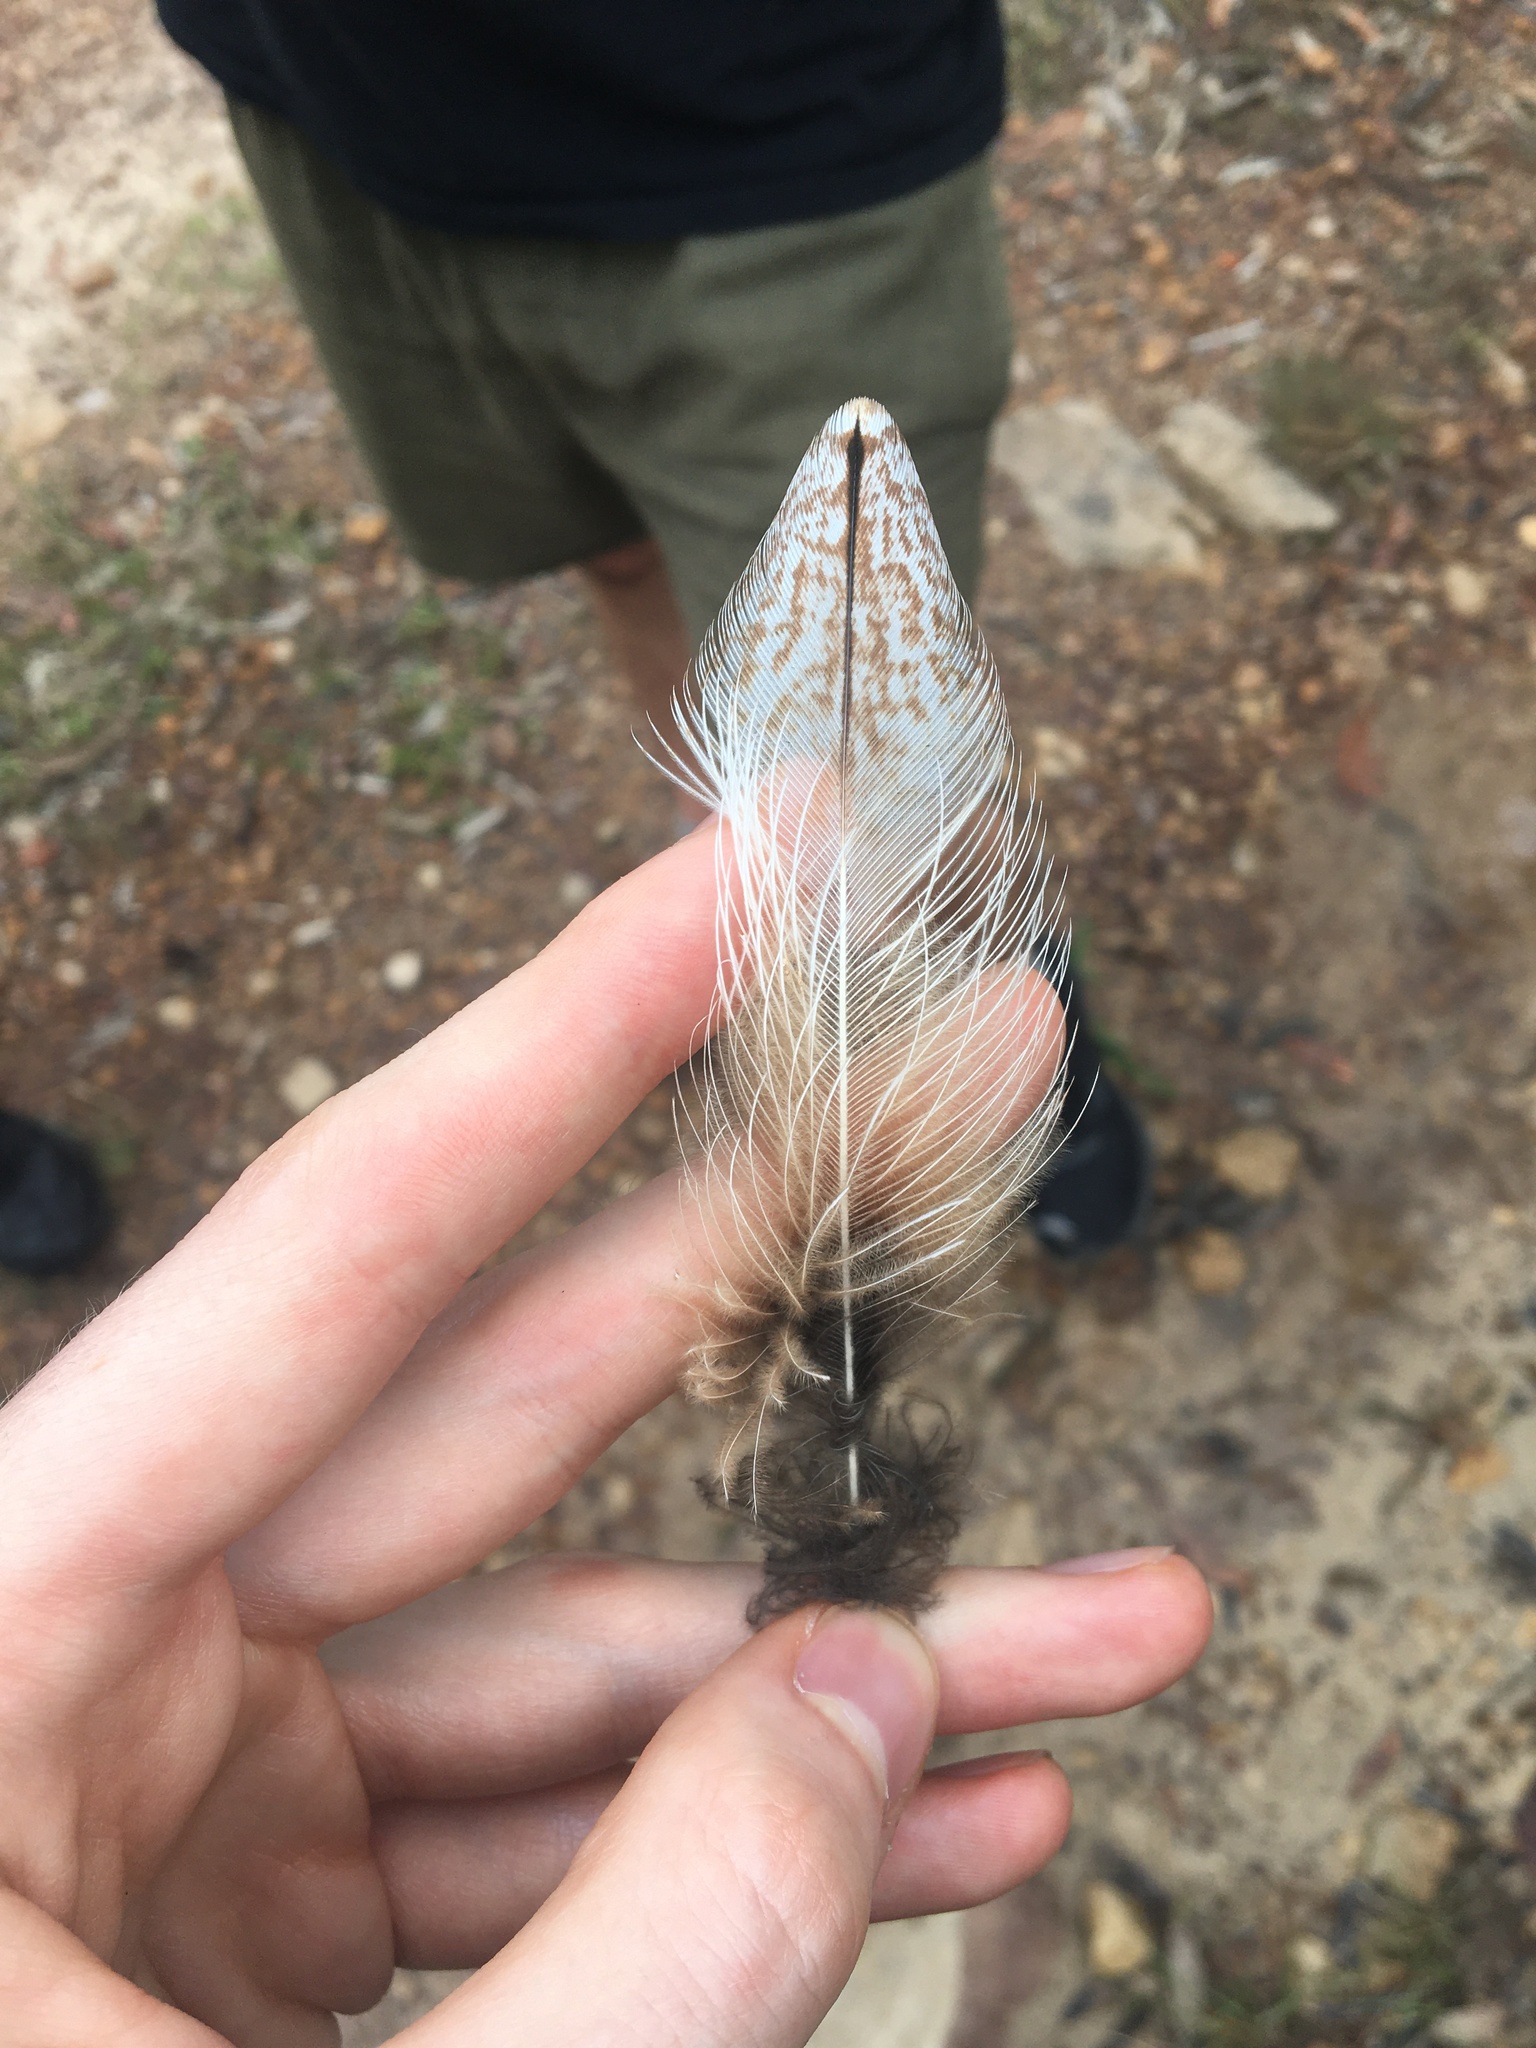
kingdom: Animalia
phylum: Chordata
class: Aves
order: Caprimulgiformes
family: Podargidae
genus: Podargus
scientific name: Podargus strigoides
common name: Tawny frogmouth
